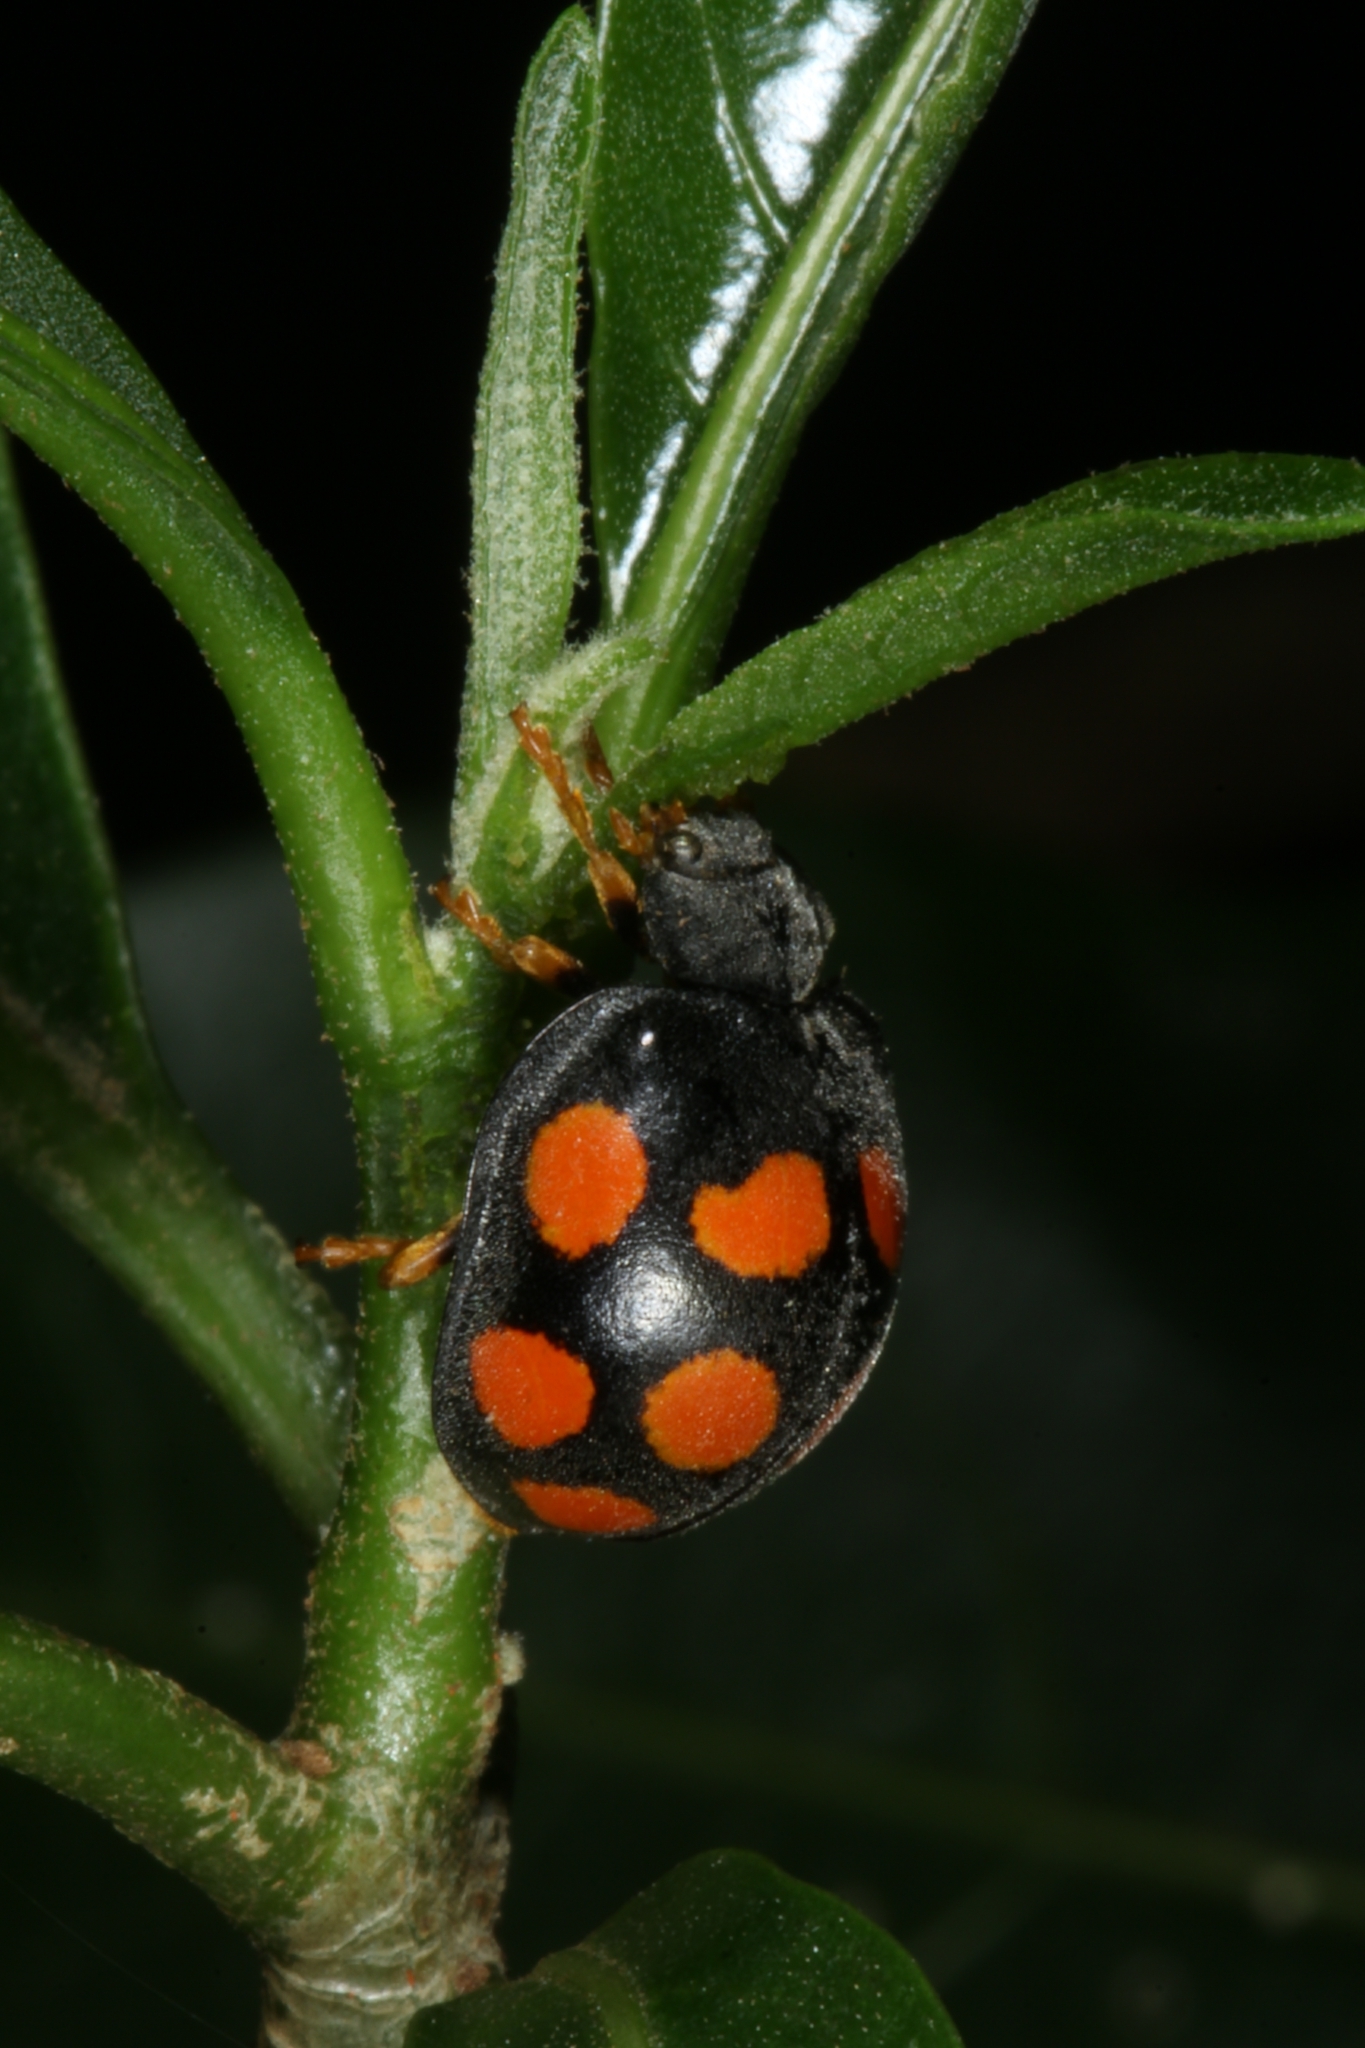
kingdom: Animalia
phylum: Arthropoda
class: Insecta
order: Coleoptera
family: Coccinellidae
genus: Epilachna
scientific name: Epilachna
